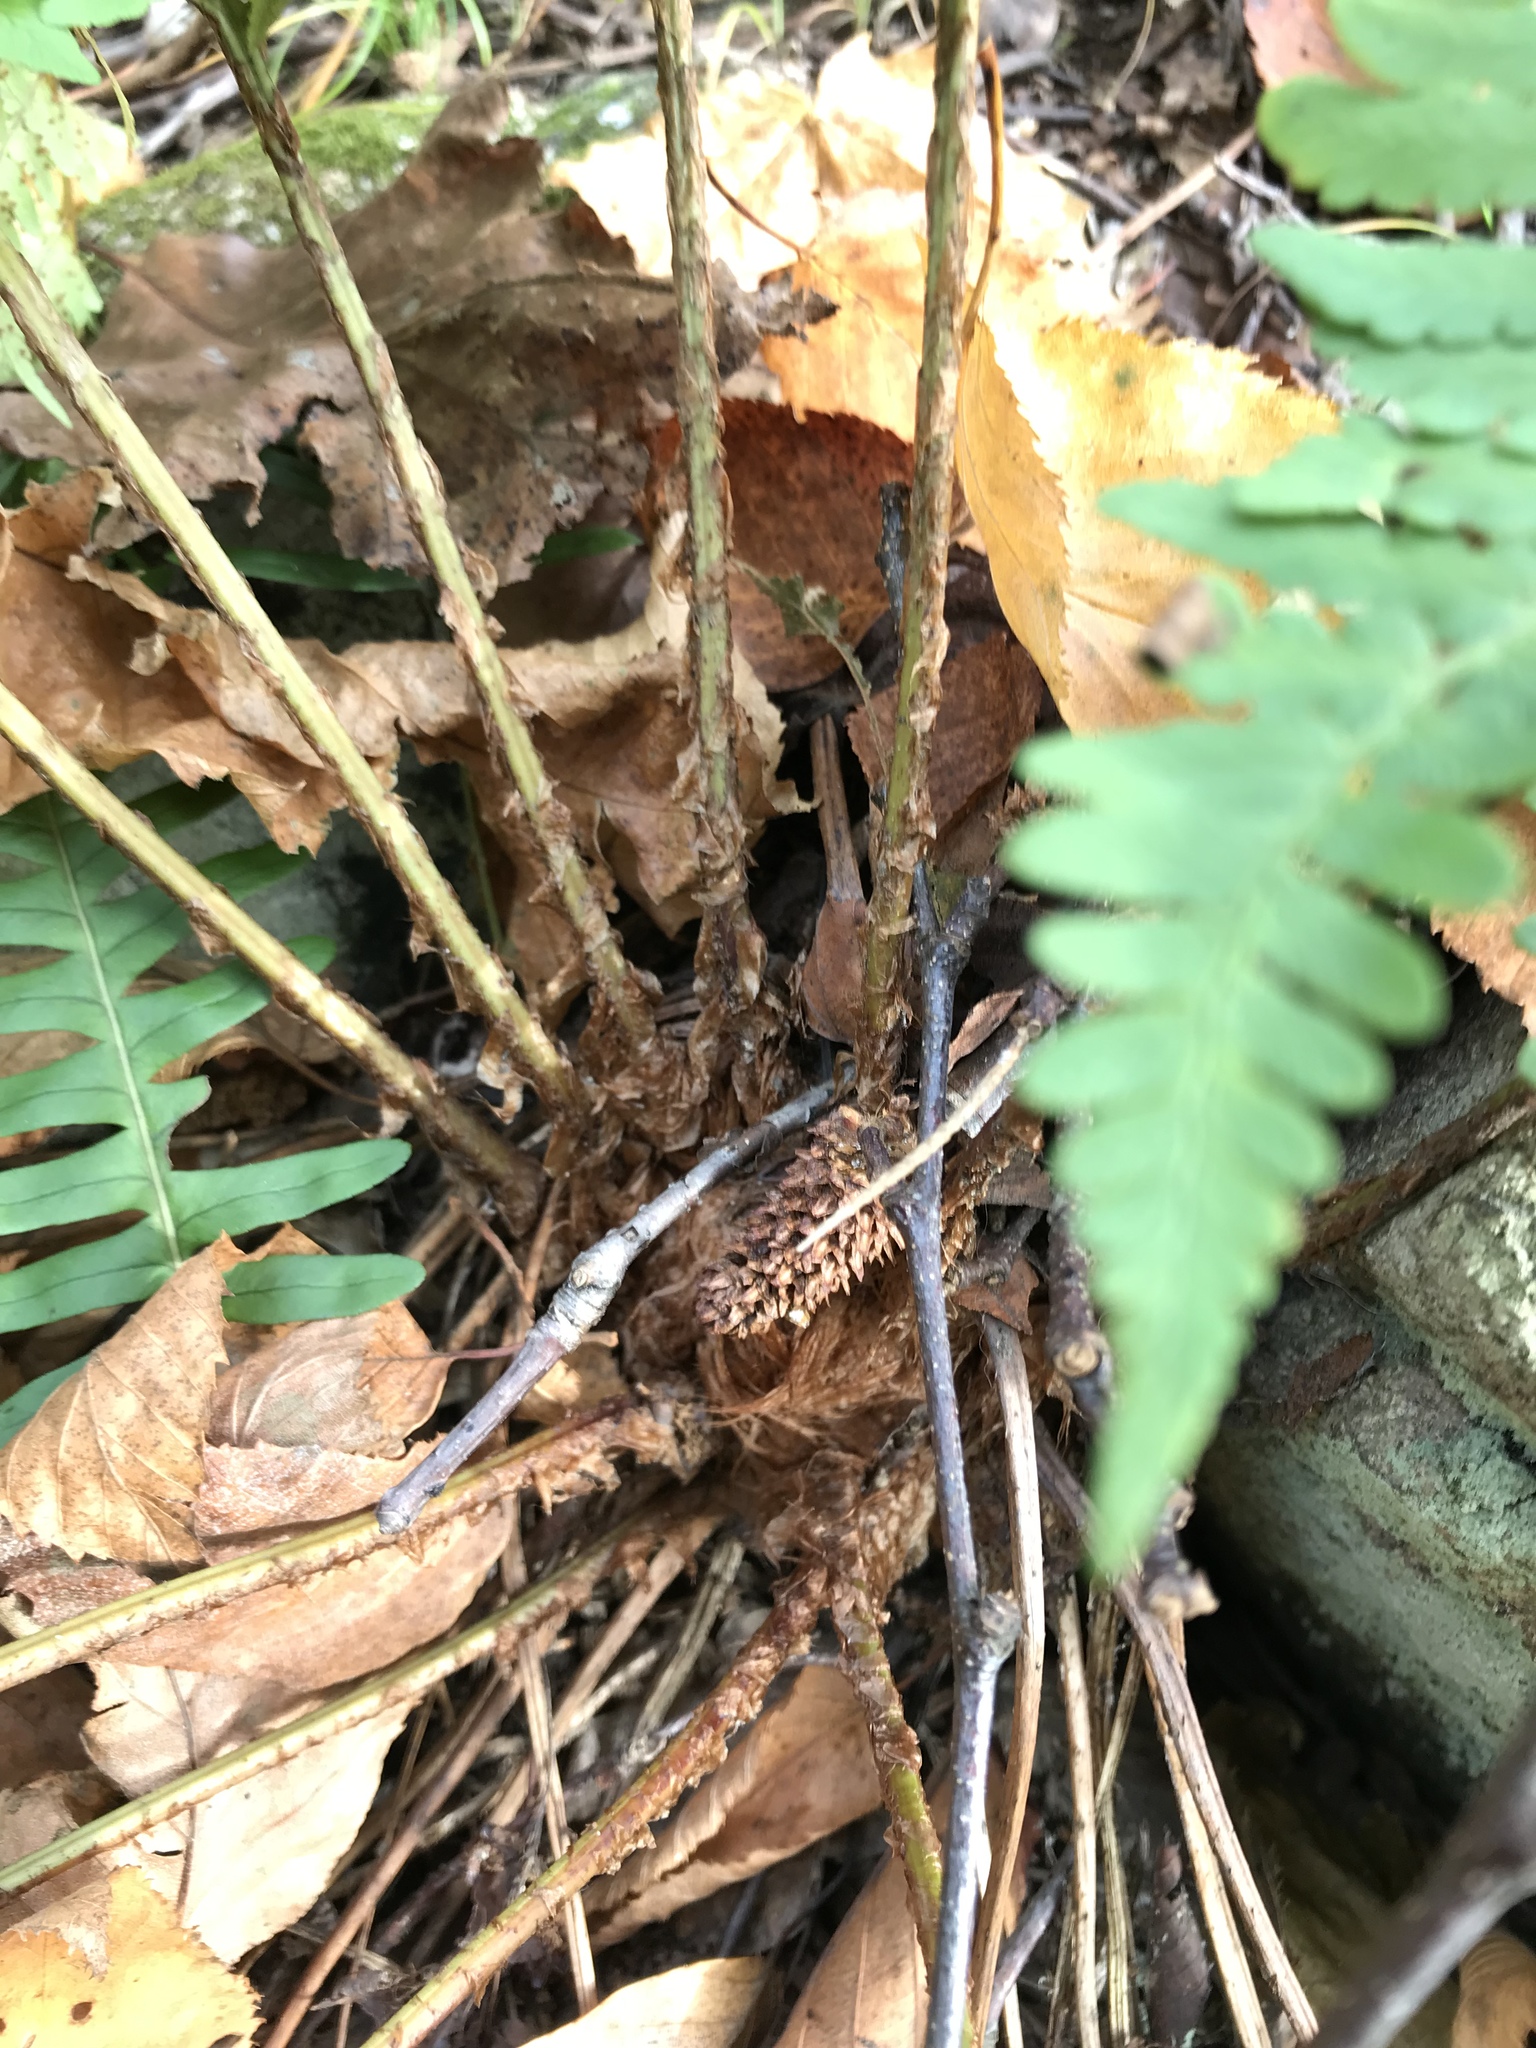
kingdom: Plantae
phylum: Tracheophyta
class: Polypodiopsida
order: Polypodiales
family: Dryopteridaceae
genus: Dryopteris
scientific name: Dryopteris marginalis
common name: Marginal wood fern
